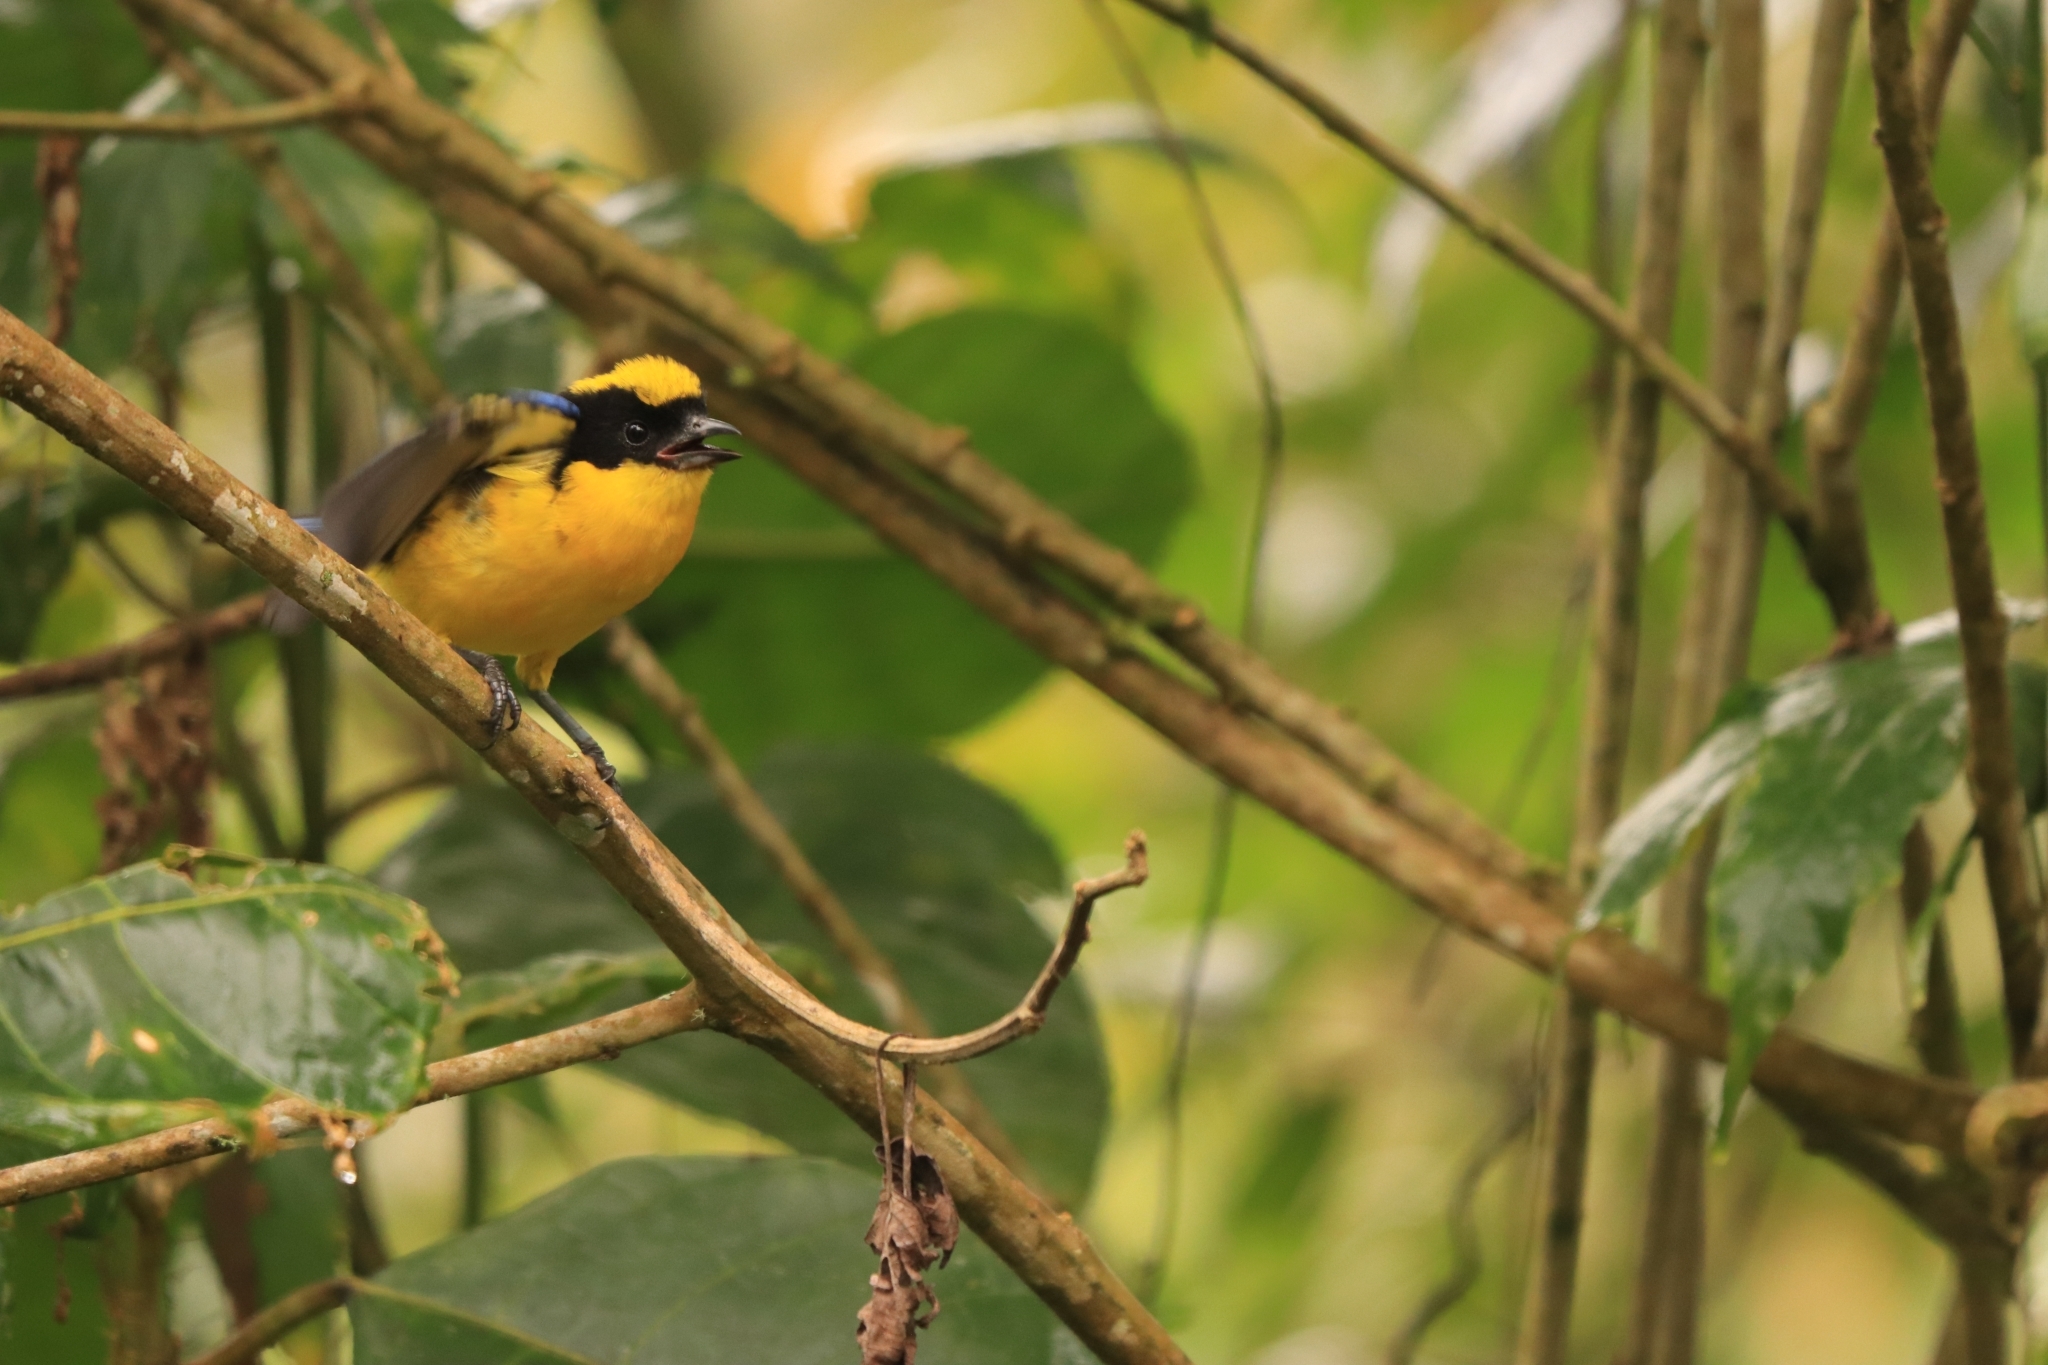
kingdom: Animalia
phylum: Chordata
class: Aves
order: Passeriformes
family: Thraupidae
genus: Anisognathus
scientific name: Anisognathus somptuosus
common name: Blue-winged mountain-tanager
